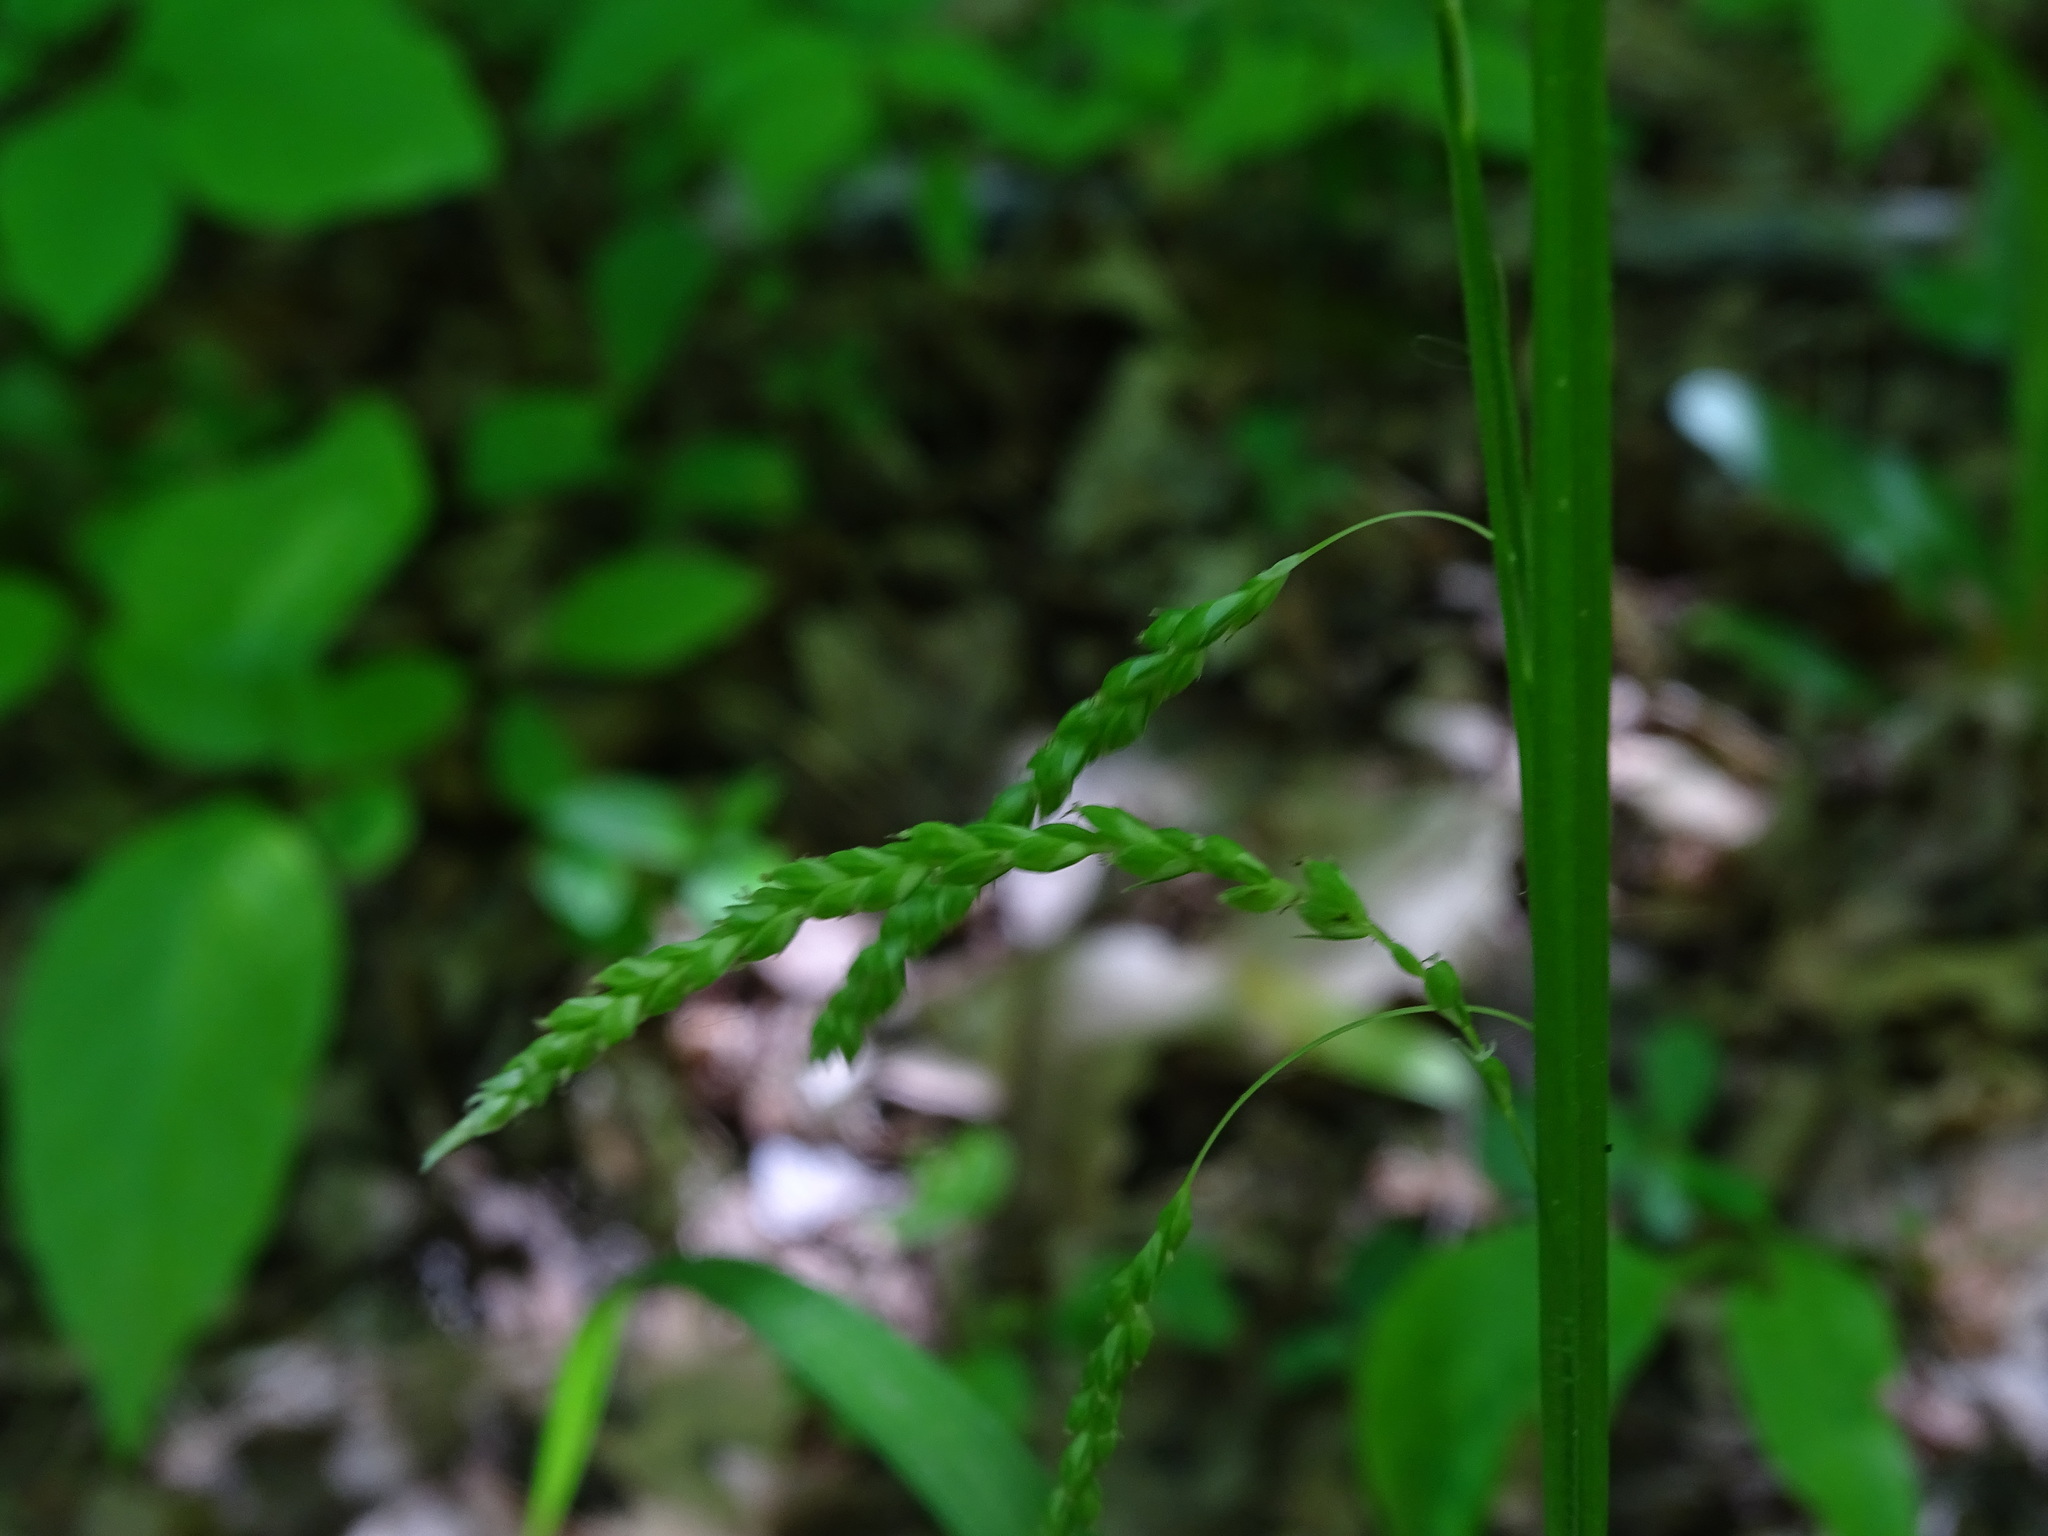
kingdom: Plantae
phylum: Tracheophyta
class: Liliopsida
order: Poales
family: Cyperaceae
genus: Carex
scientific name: Carex gracillima
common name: Graceful sedge
